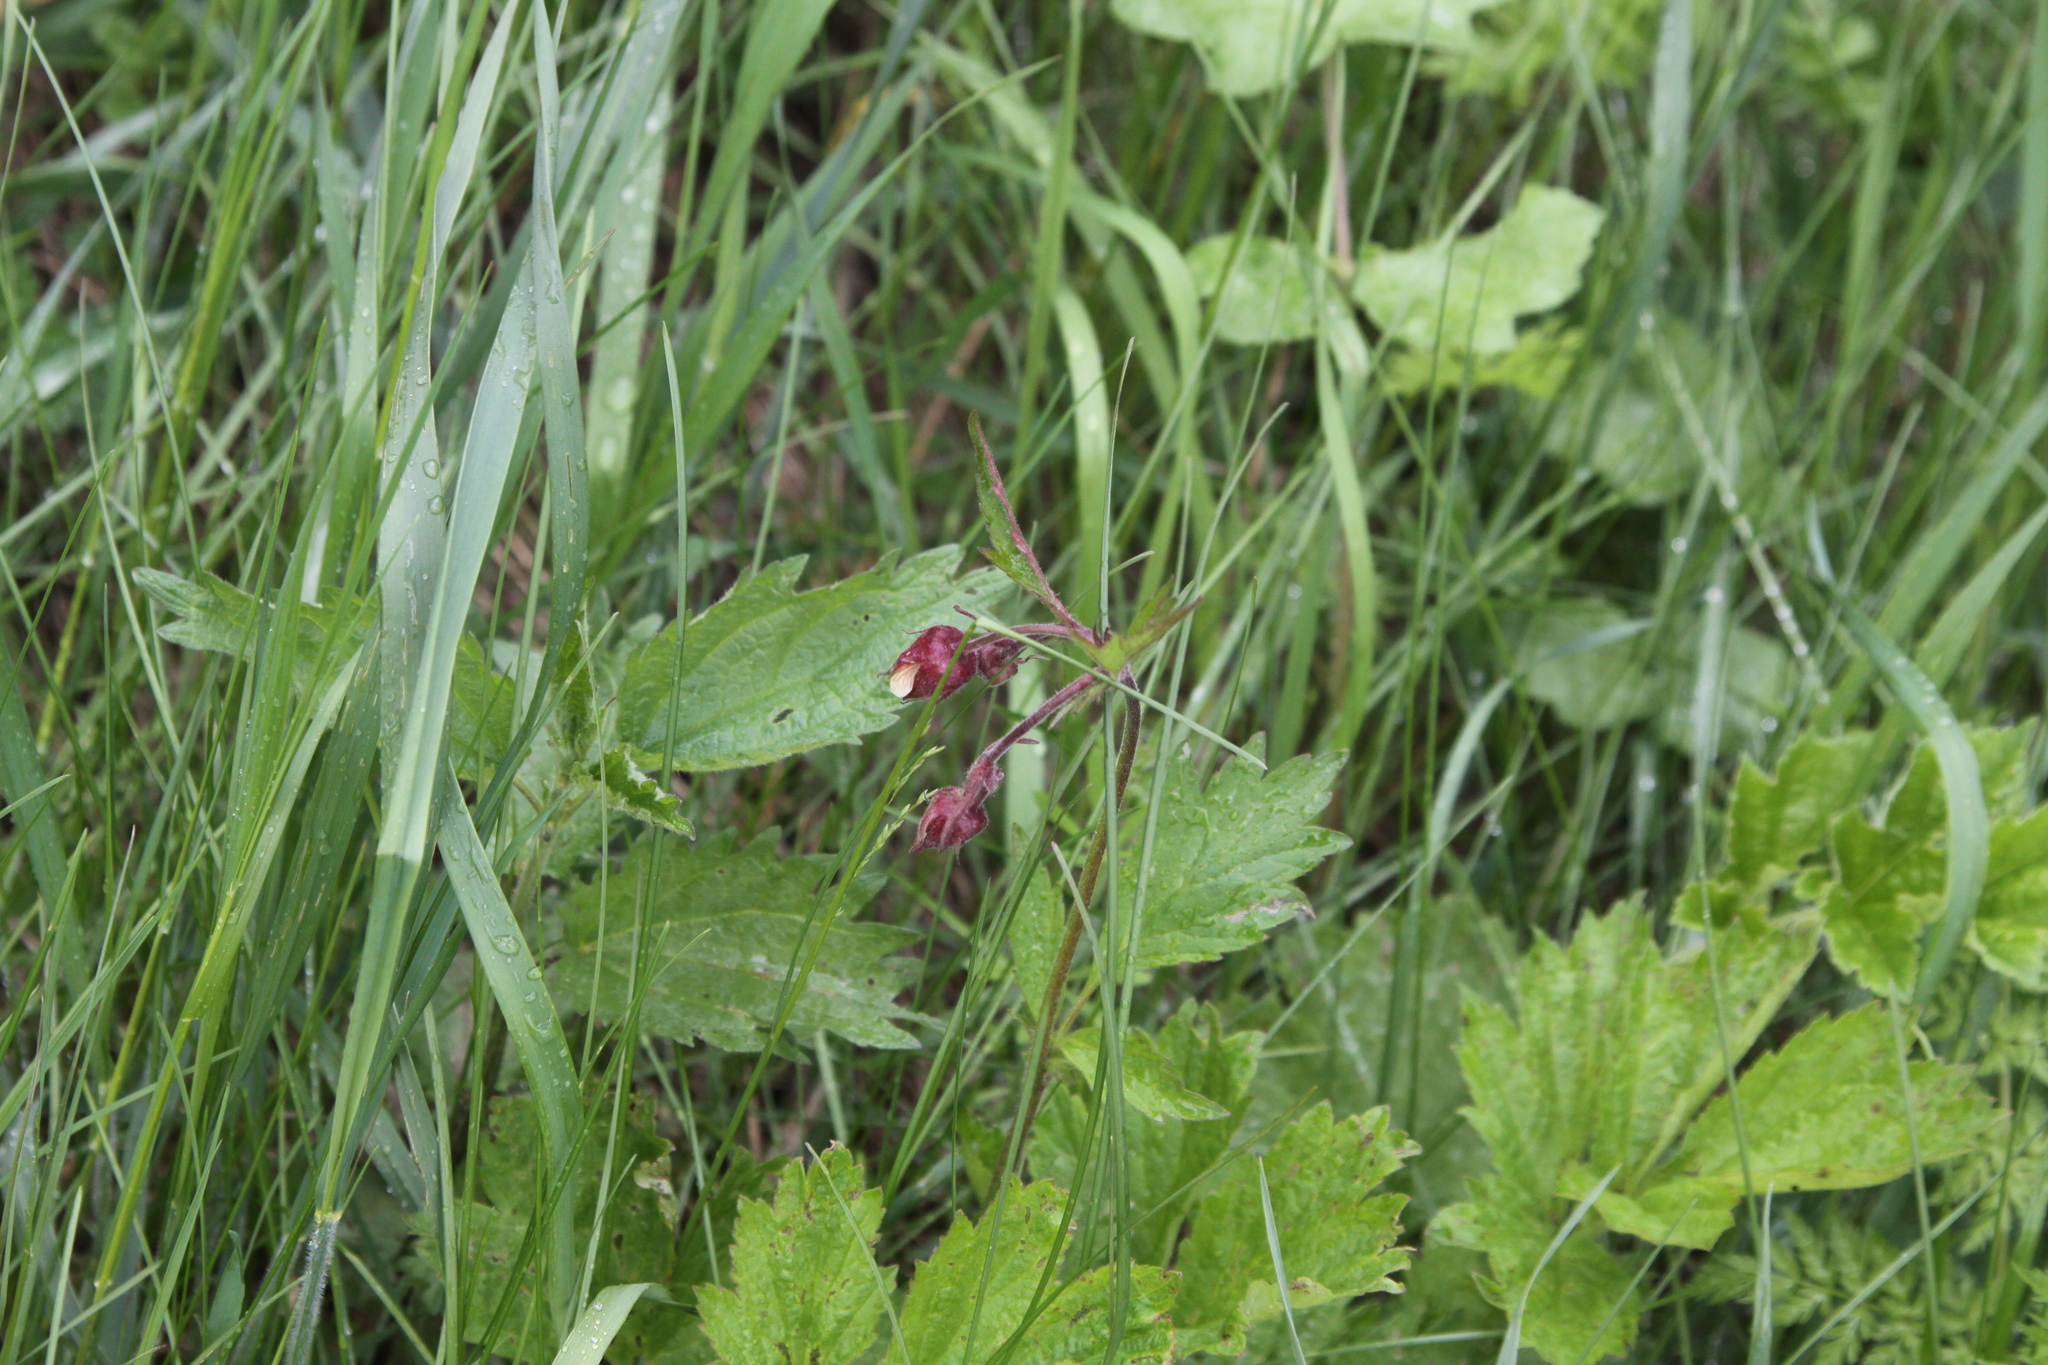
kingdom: Plantae
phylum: Tracheophyta
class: Magnoliopsida
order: Rosales
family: Rosaceae
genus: Geum
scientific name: Geum rivale
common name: Water avens
